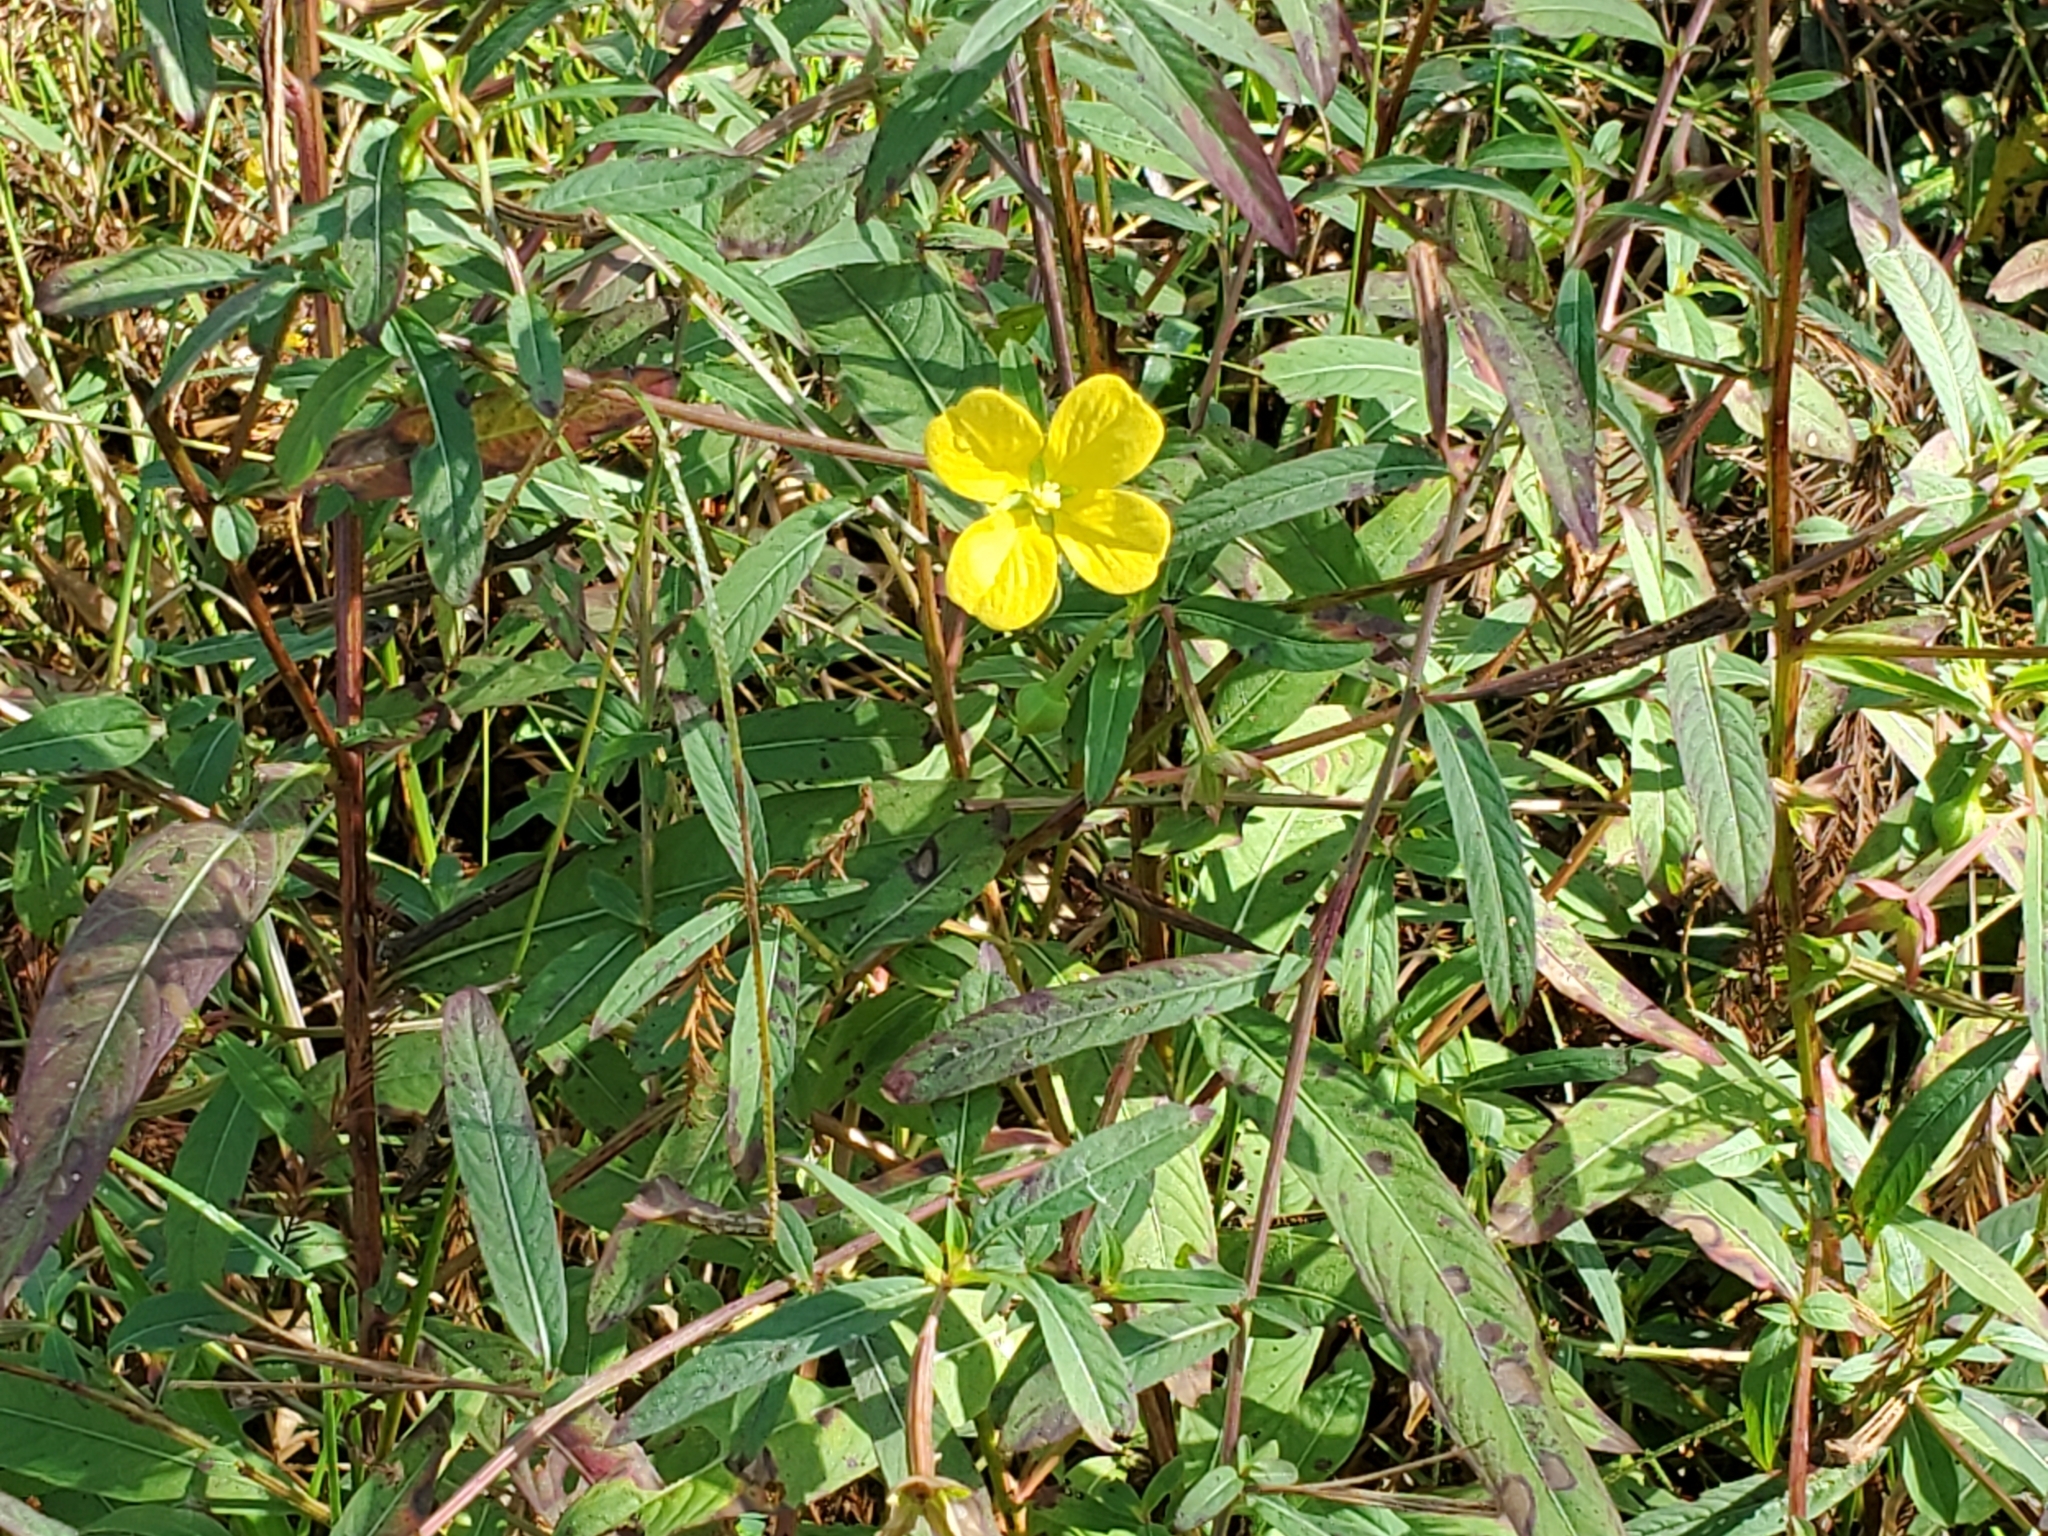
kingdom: Plantae
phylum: Tracheophyta
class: Magnoliopsida
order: Myrtales
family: Onagraceae
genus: Ludwigia
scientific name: Ludwigia octovalvis
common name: Water-primrose
